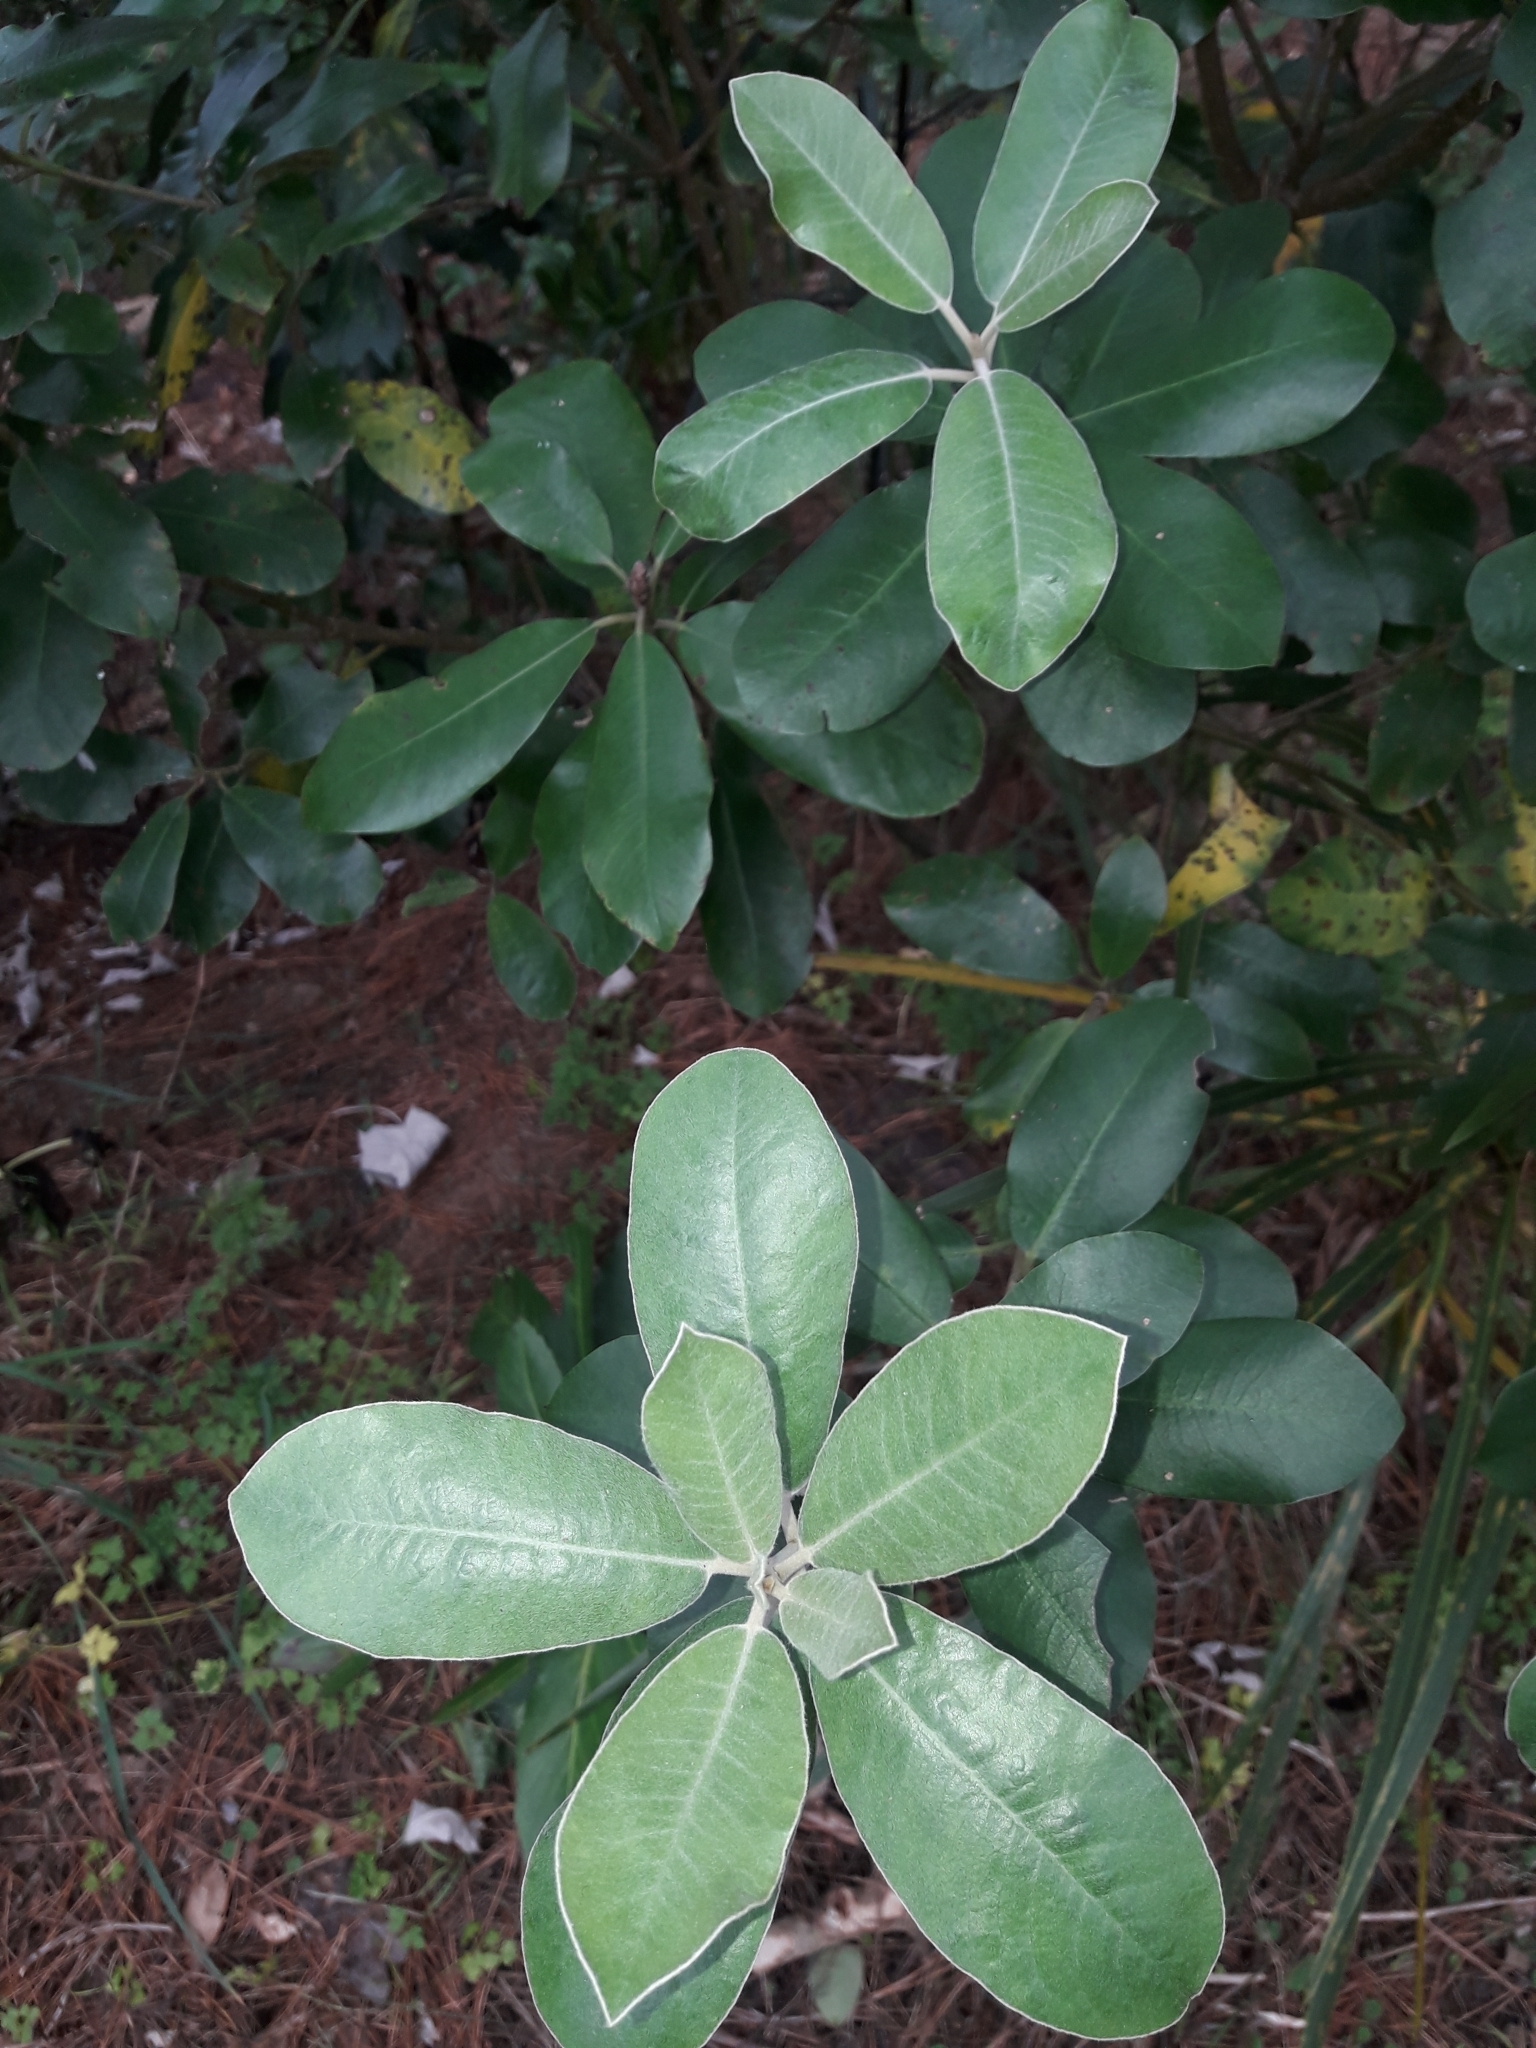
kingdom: Plantae
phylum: Tracheophyta
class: Magnoliopsida
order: Apiales
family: Pittosporaceae
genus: Pittosporum
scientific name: Pittosporum ralphii
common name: Ralph's desertwillow
